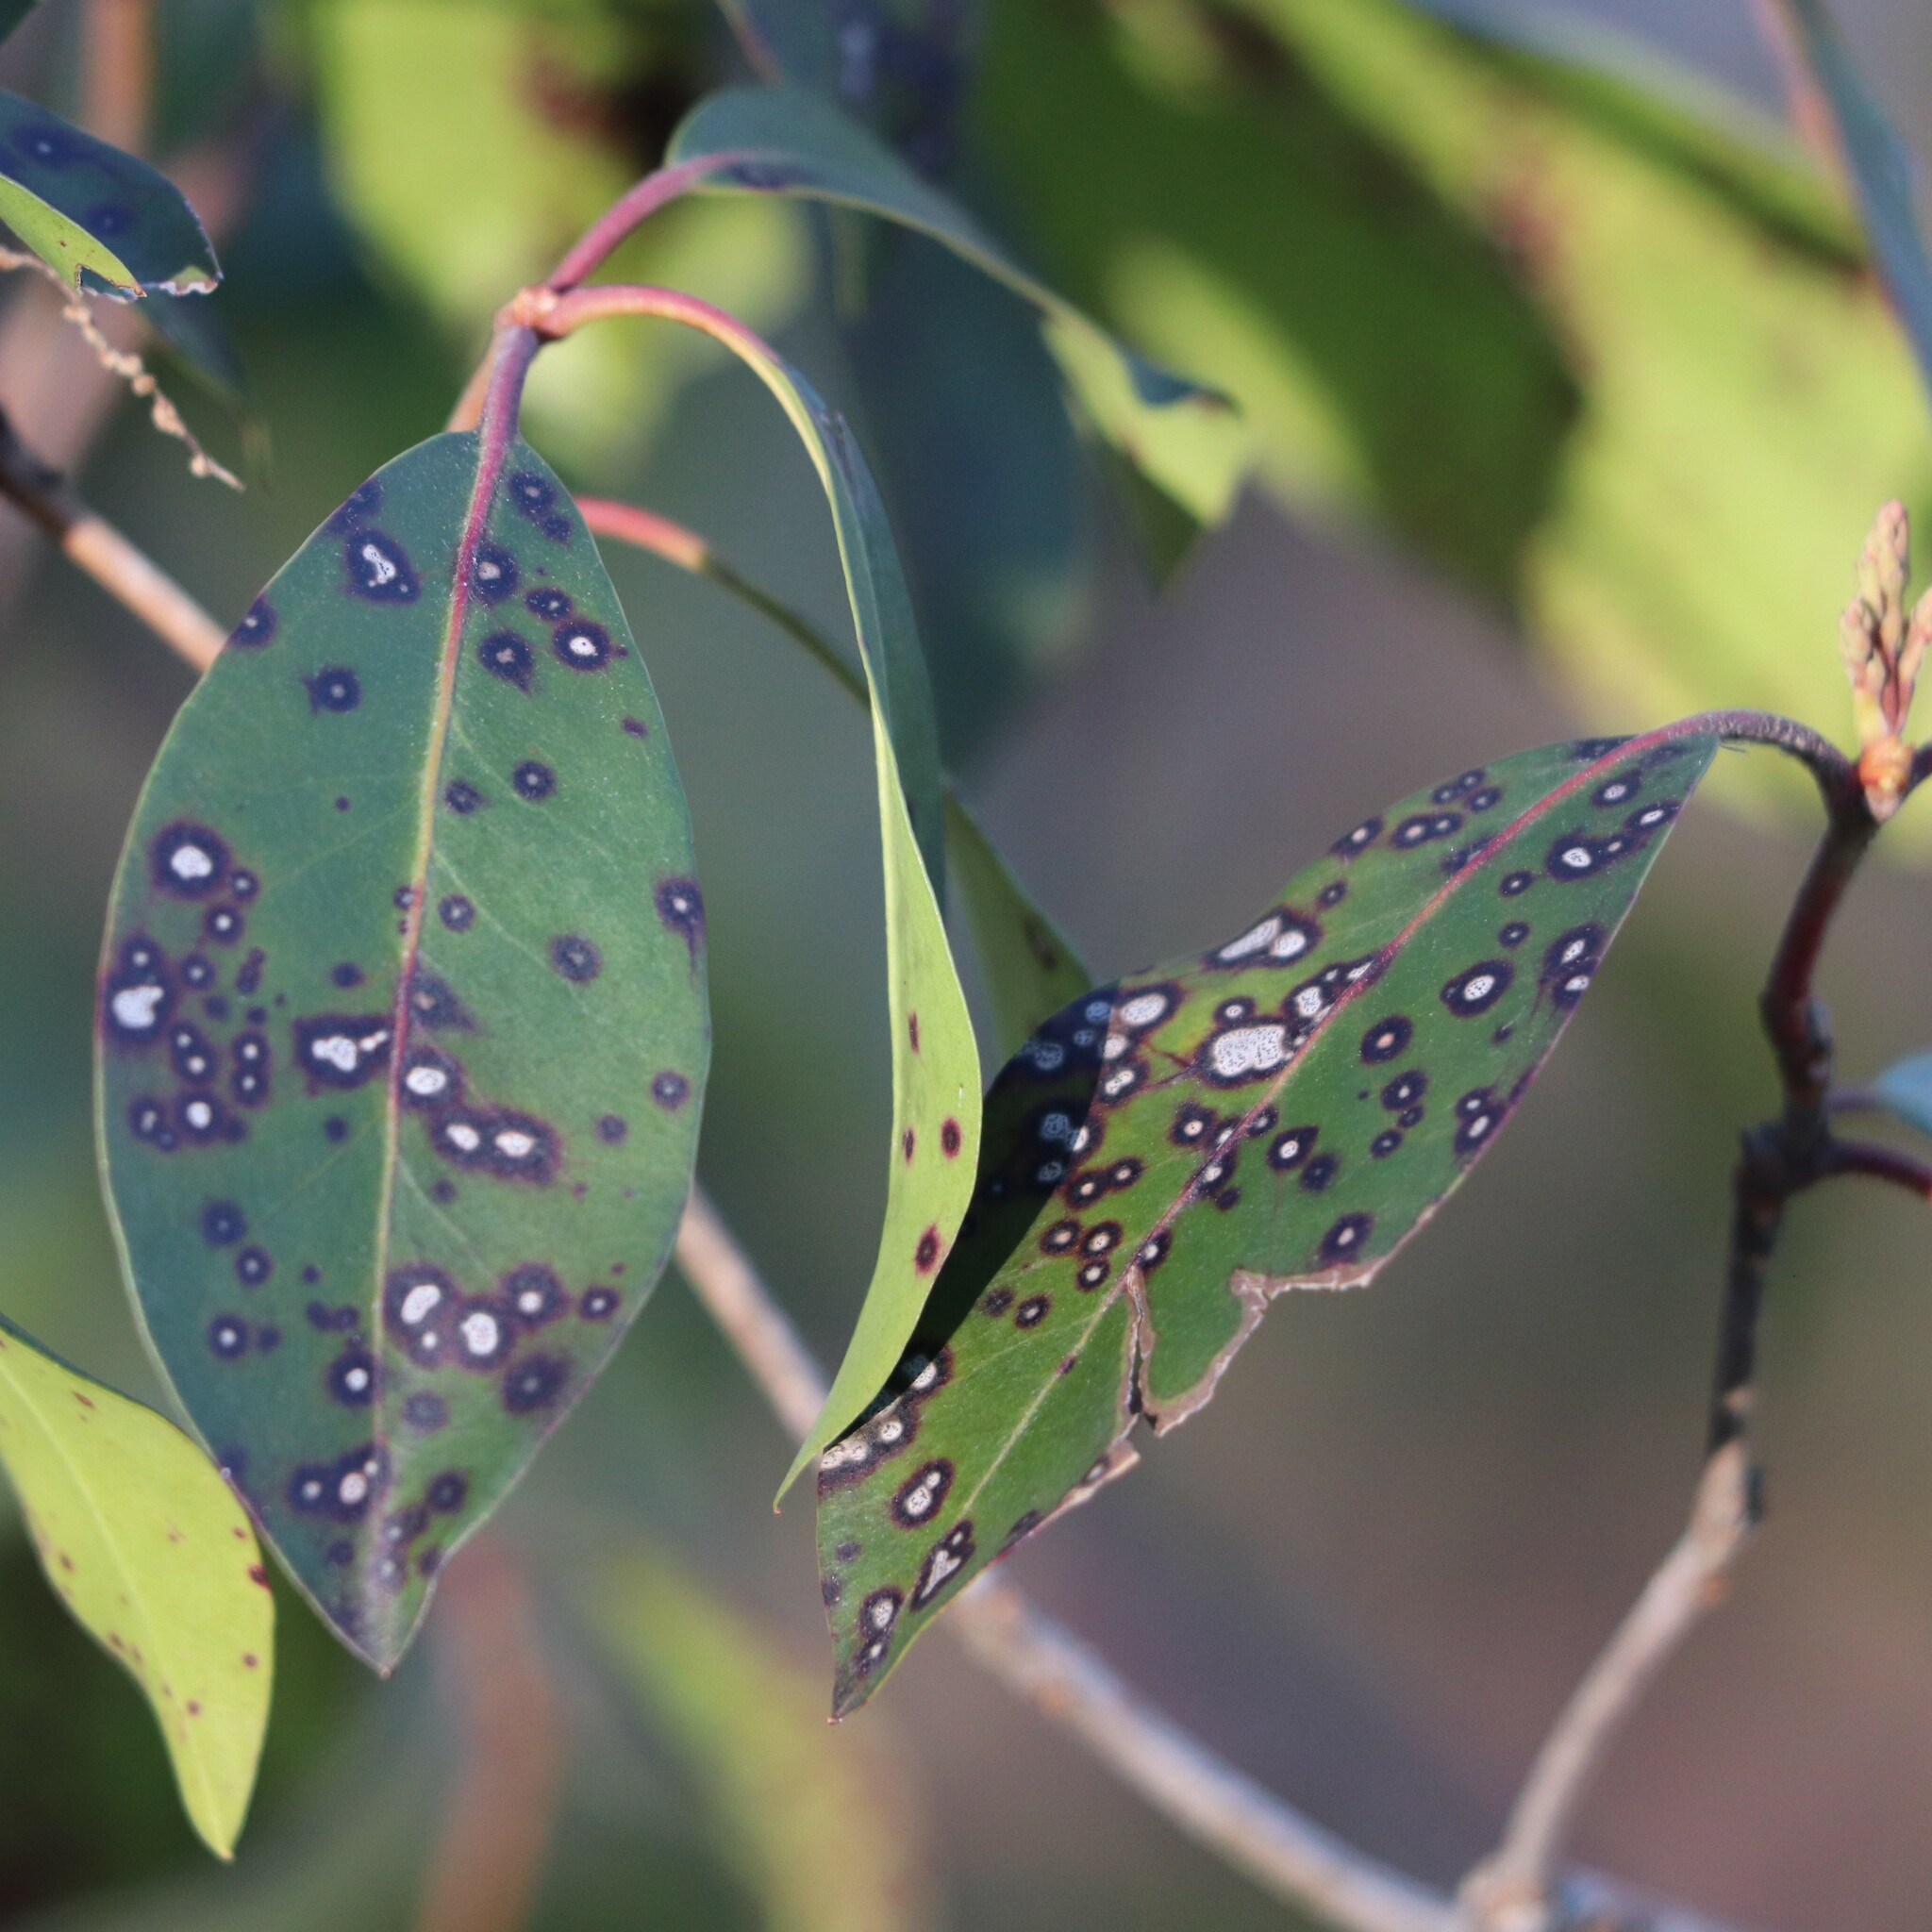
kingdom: Plantae
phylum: Tracheophyta
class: Magnoliopsida
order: Ericales
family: Ericaceae
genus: Kalmia
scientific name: Kalmia latifolia
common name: Mountain-laurel
